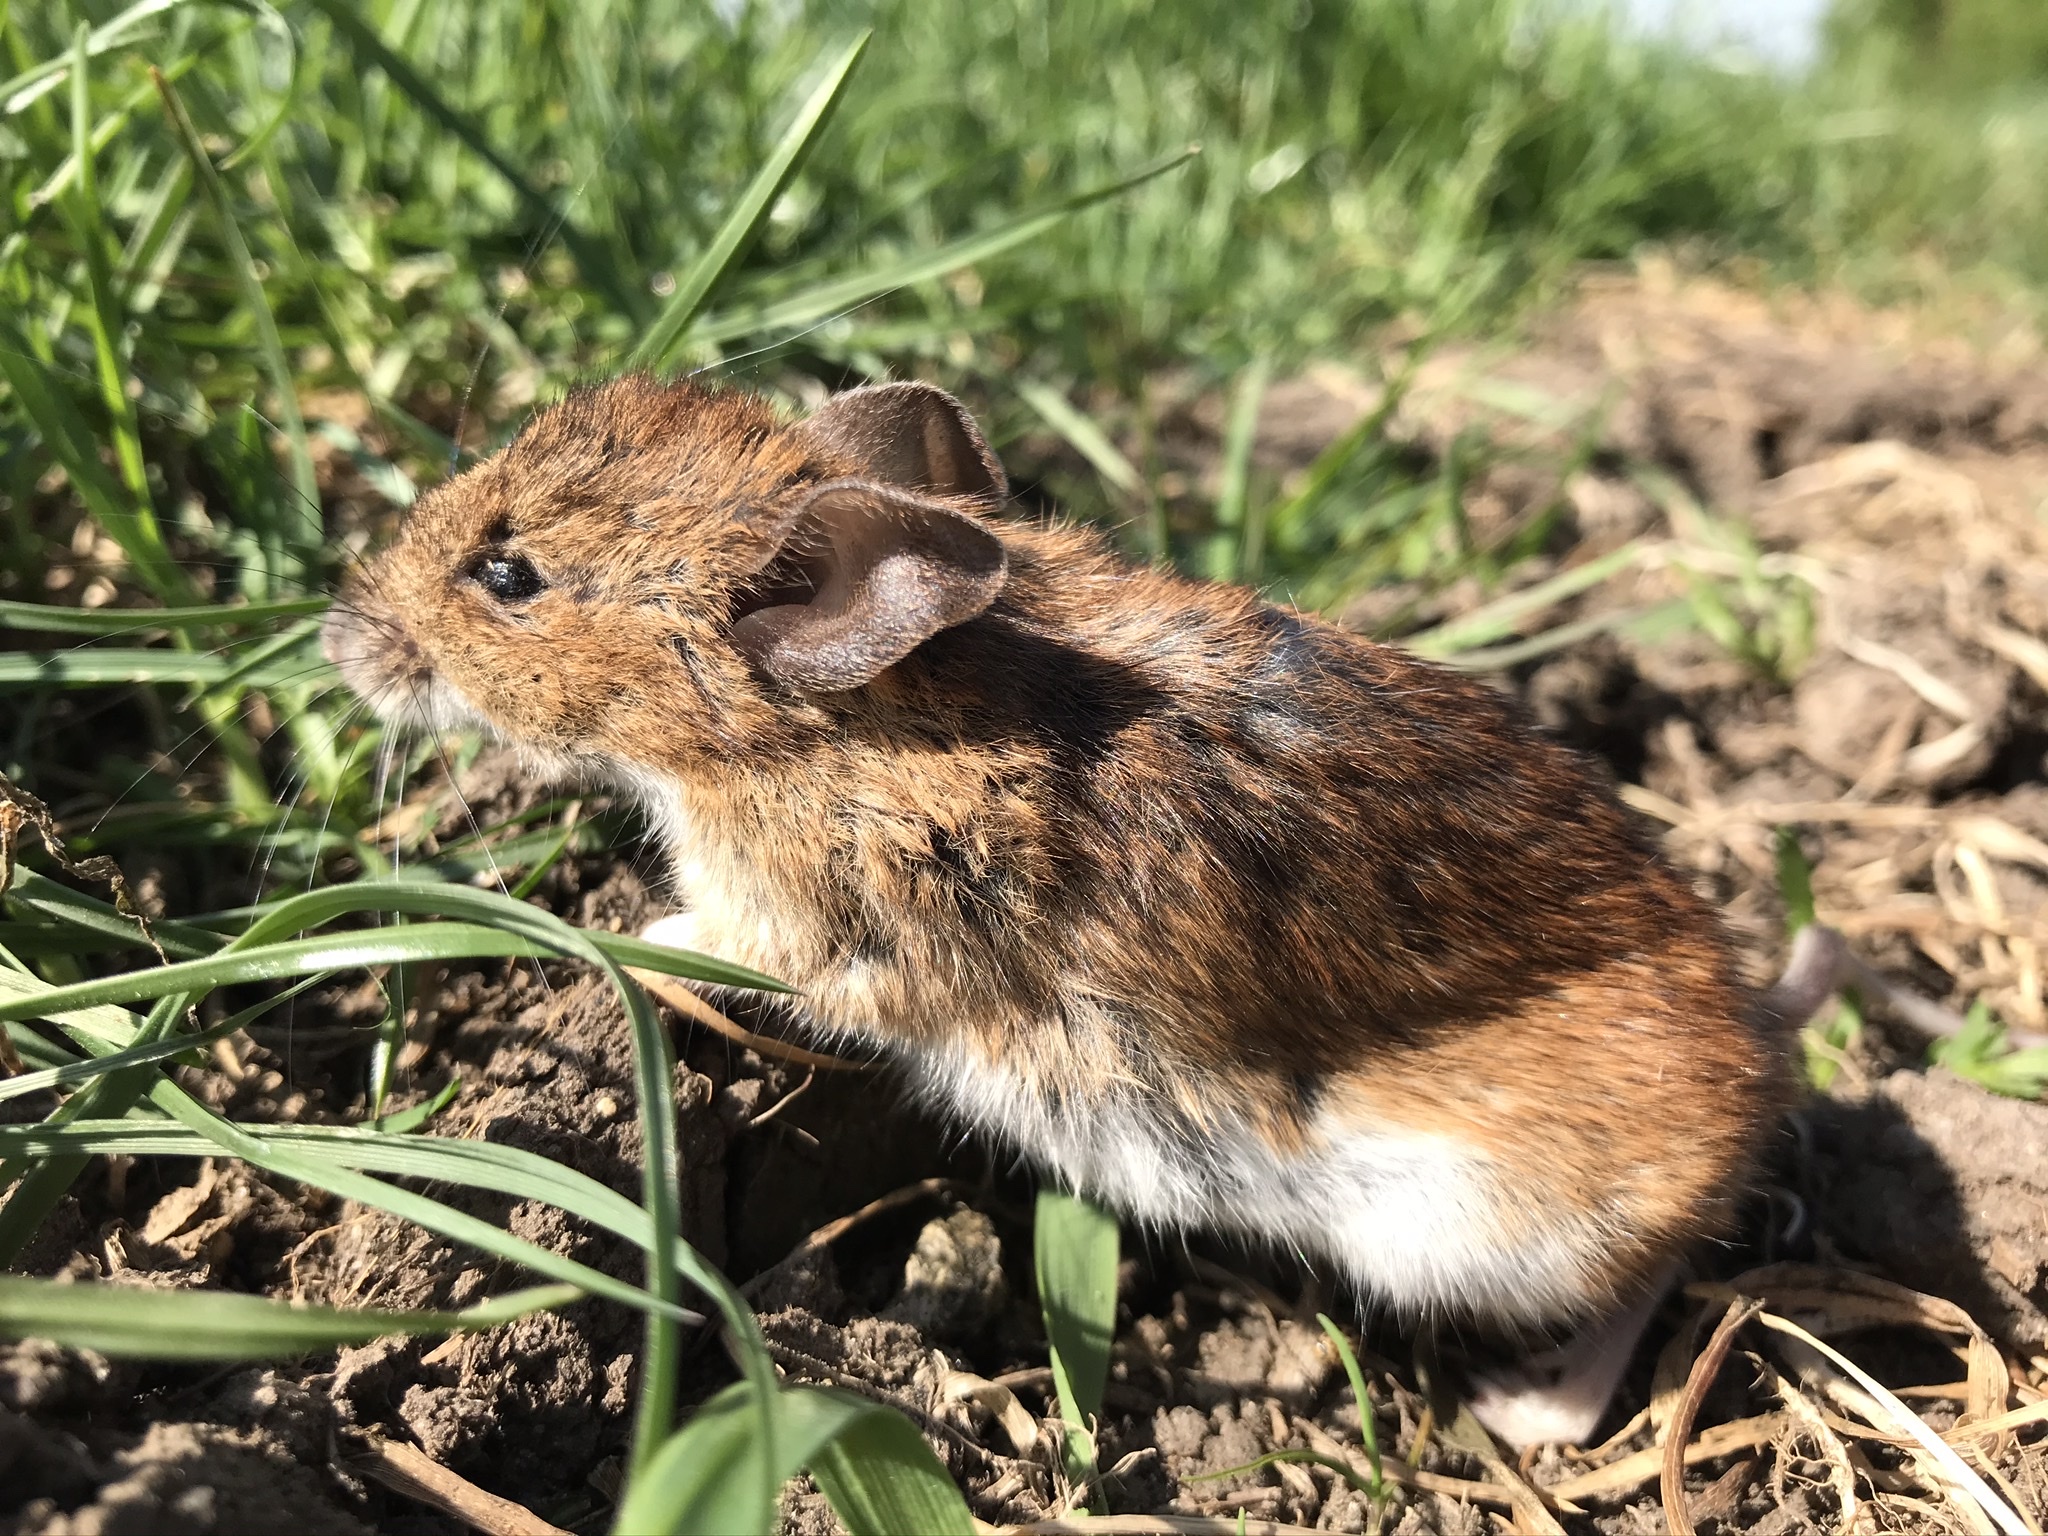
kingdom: Animalia
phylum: Chordata
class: Mammalia
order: Rodentia
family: Muridae
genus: Apodemus
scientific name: Apodemus sylvaticus
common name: Wood mouse
